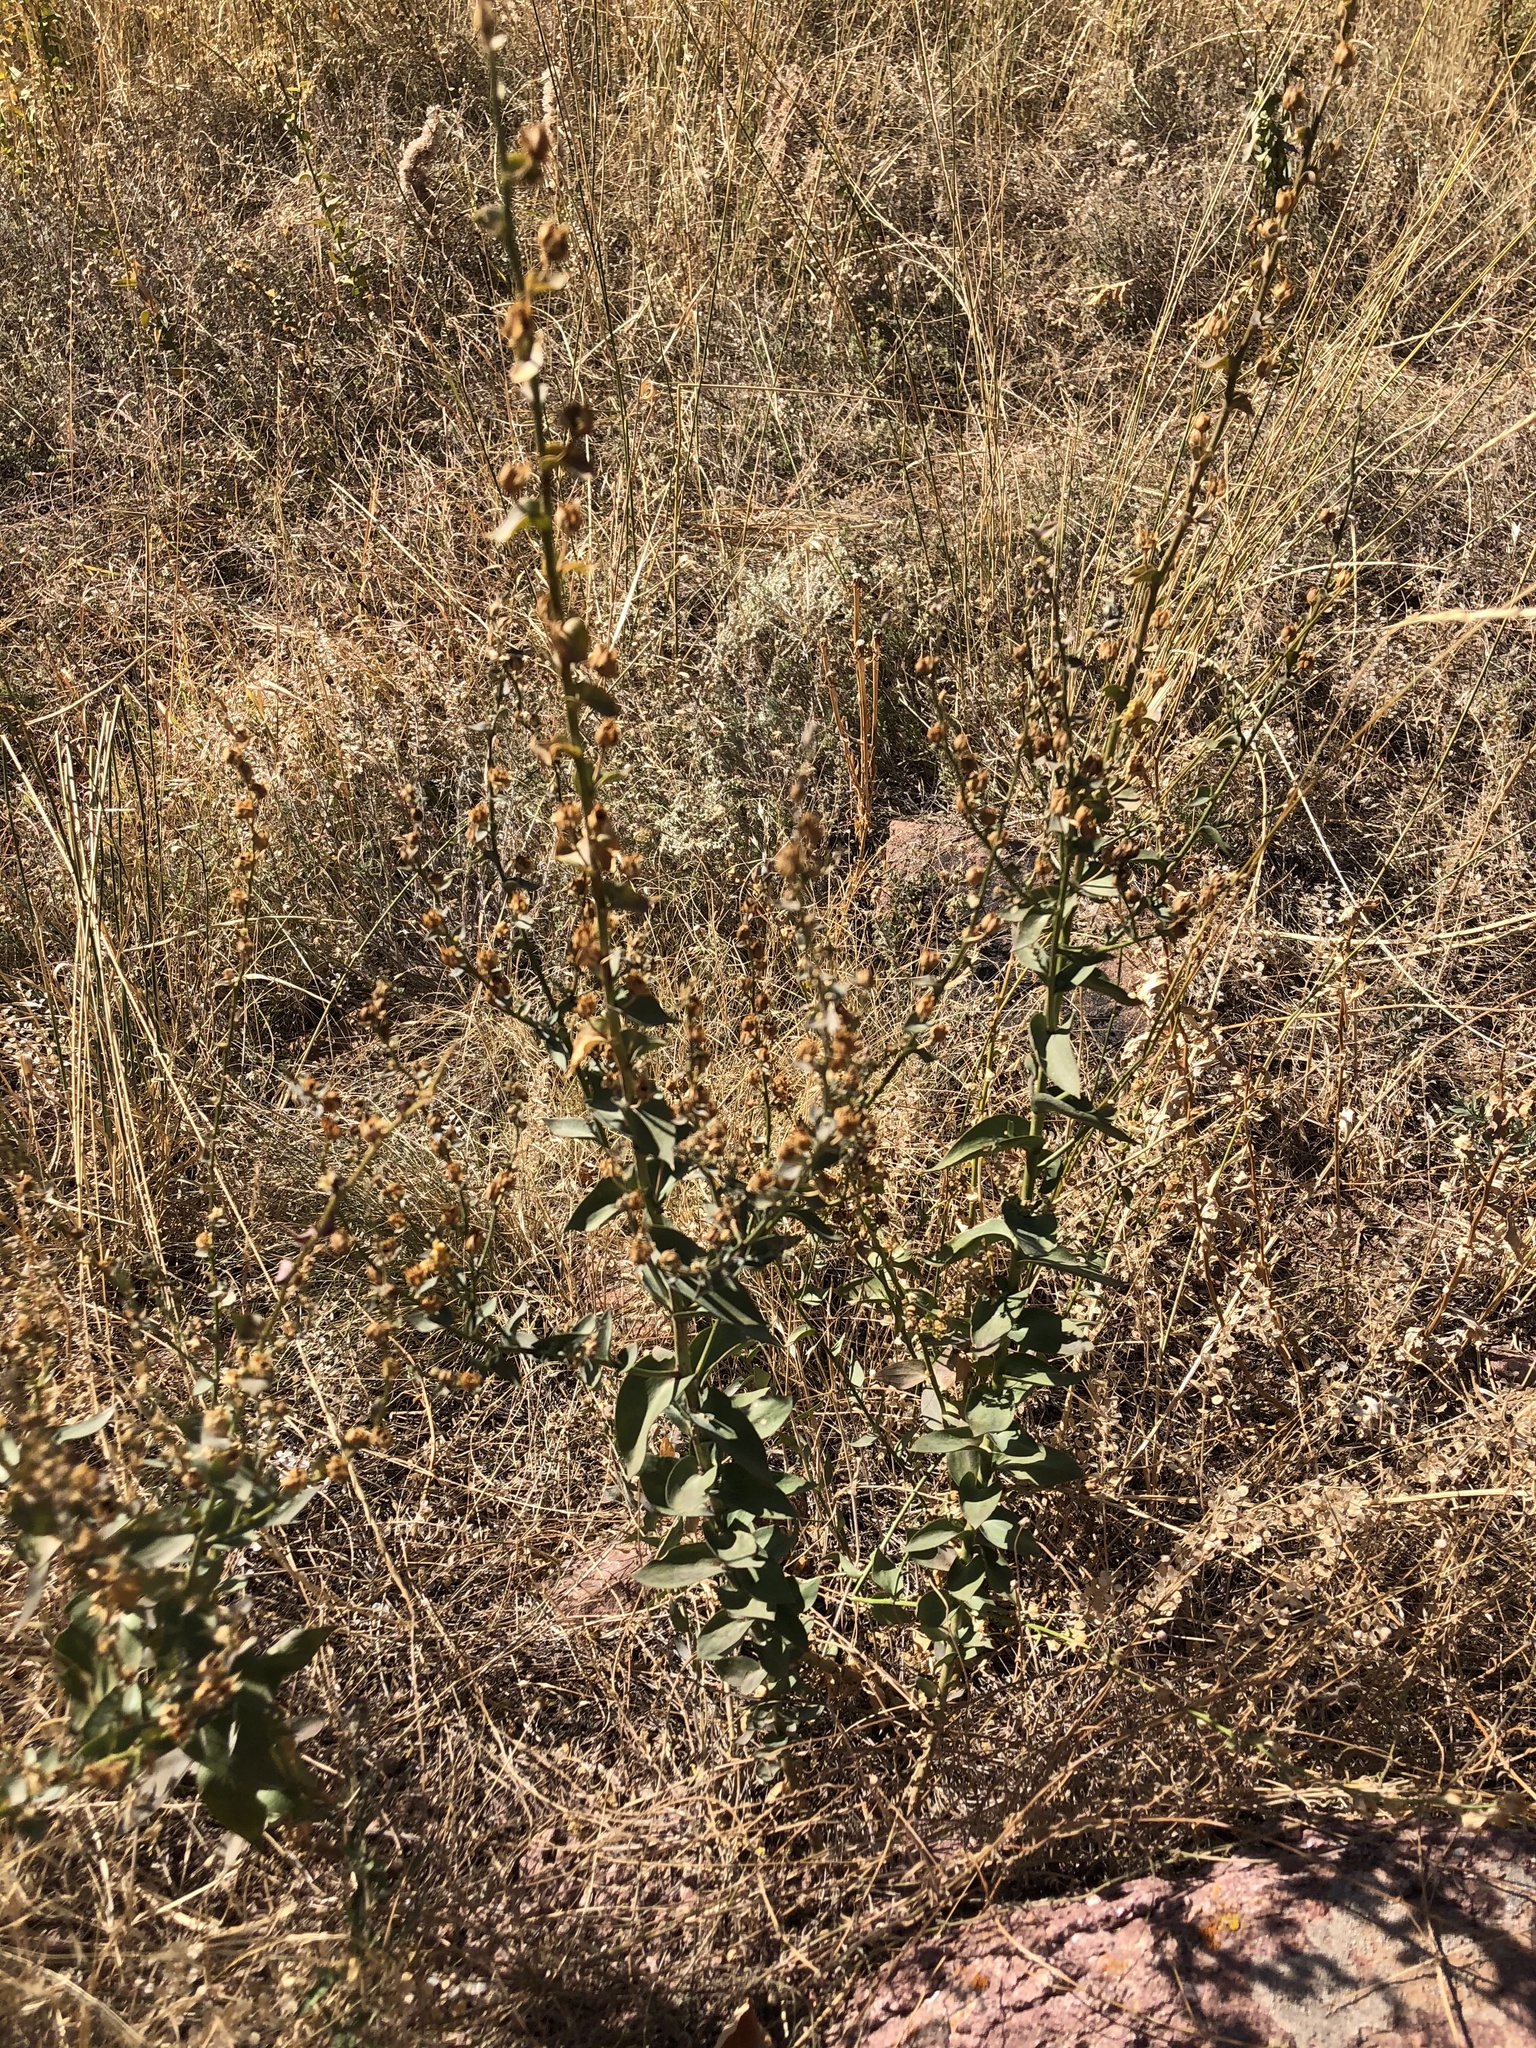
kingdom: Plantae
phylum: Tracheophyta
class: Magnoliopsida
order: Lamiales
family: Plantaginaceae
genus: Linaria
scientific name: Linaria dalmatica
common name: Dalmatian toadflax
